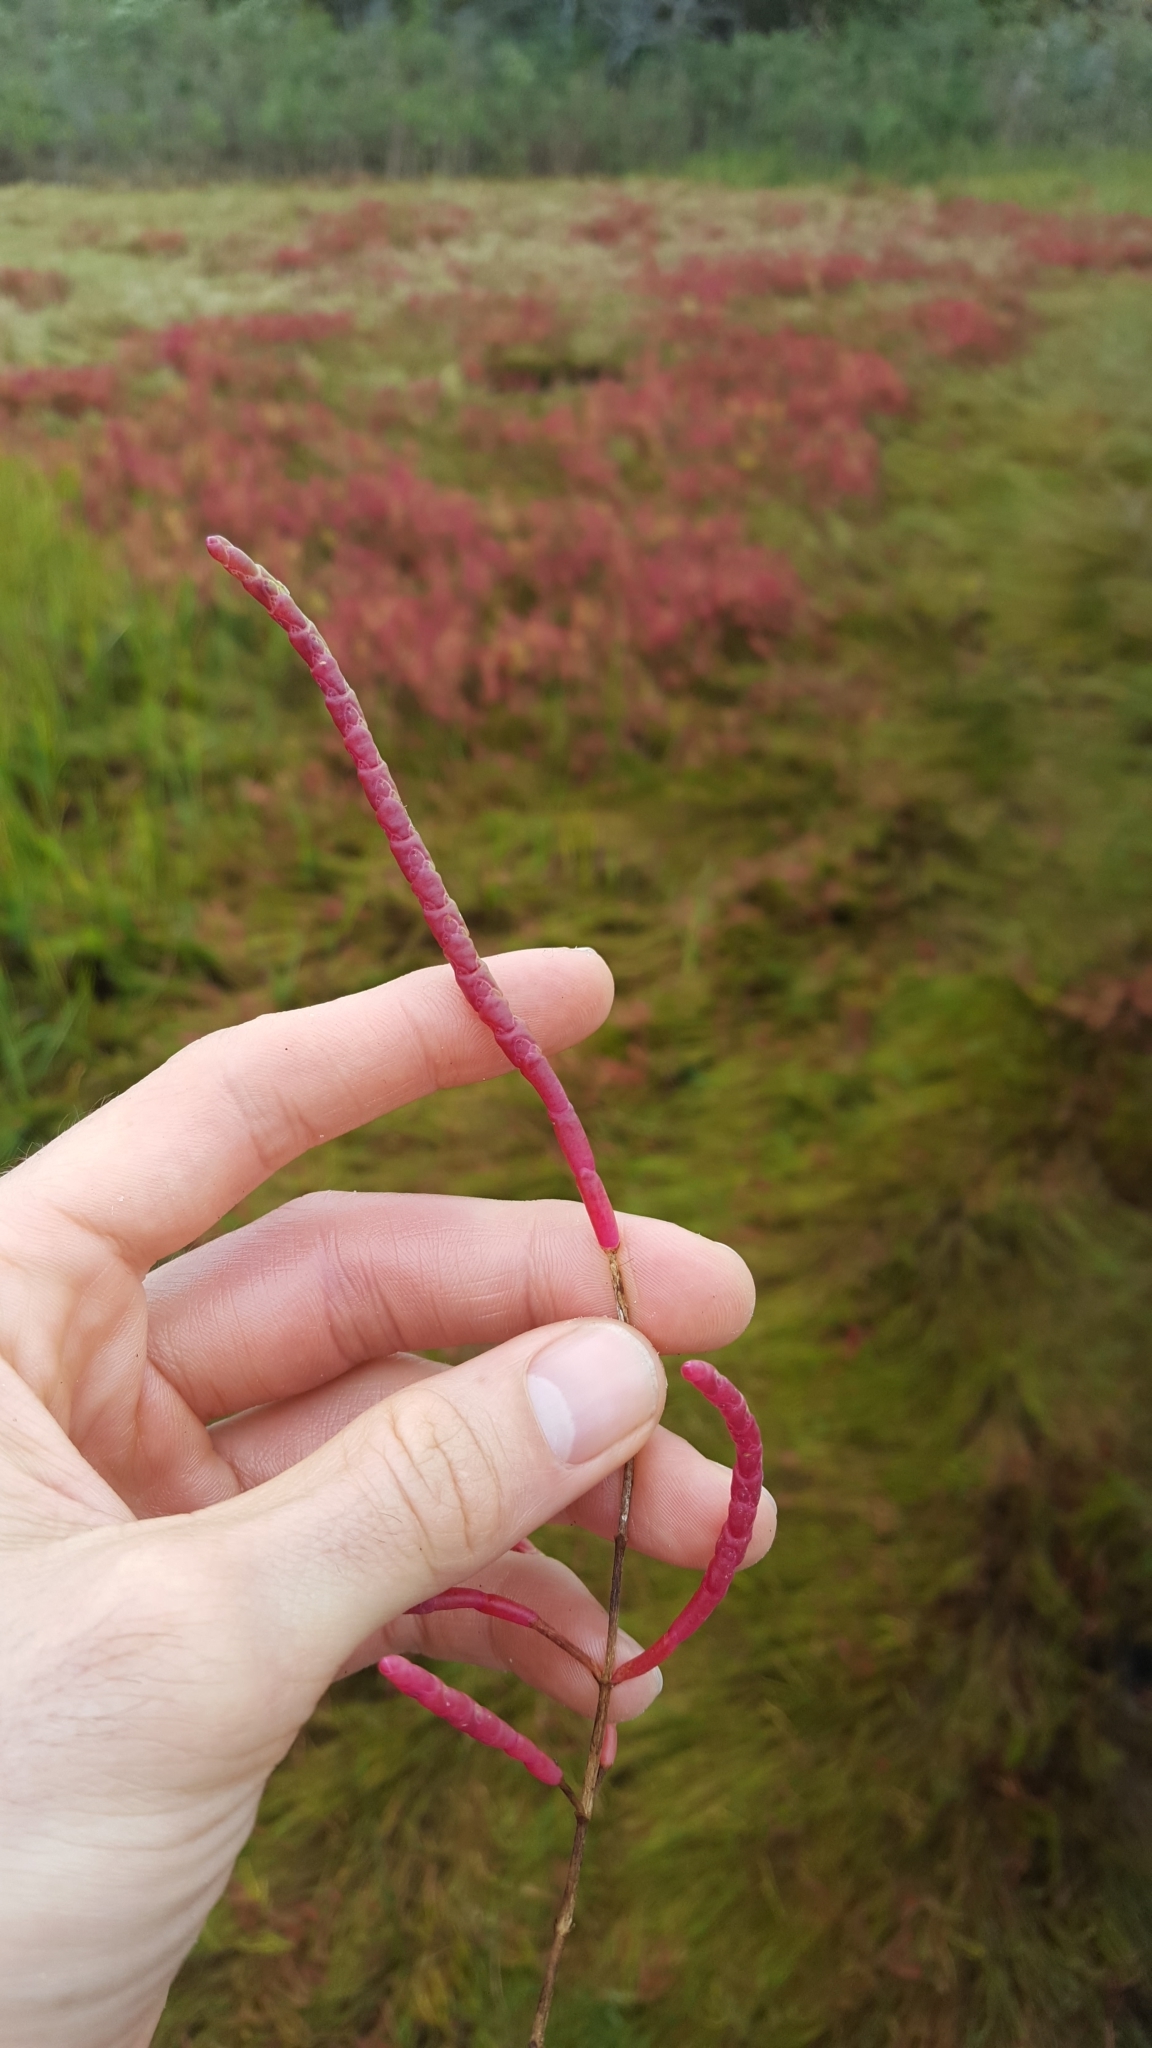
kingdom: Plantae
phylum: Tracheophyta
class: Magnoliopsida
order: Caryophyllales
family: Amaranthaceae
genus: Salicornia
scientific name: Salicornia virginica
